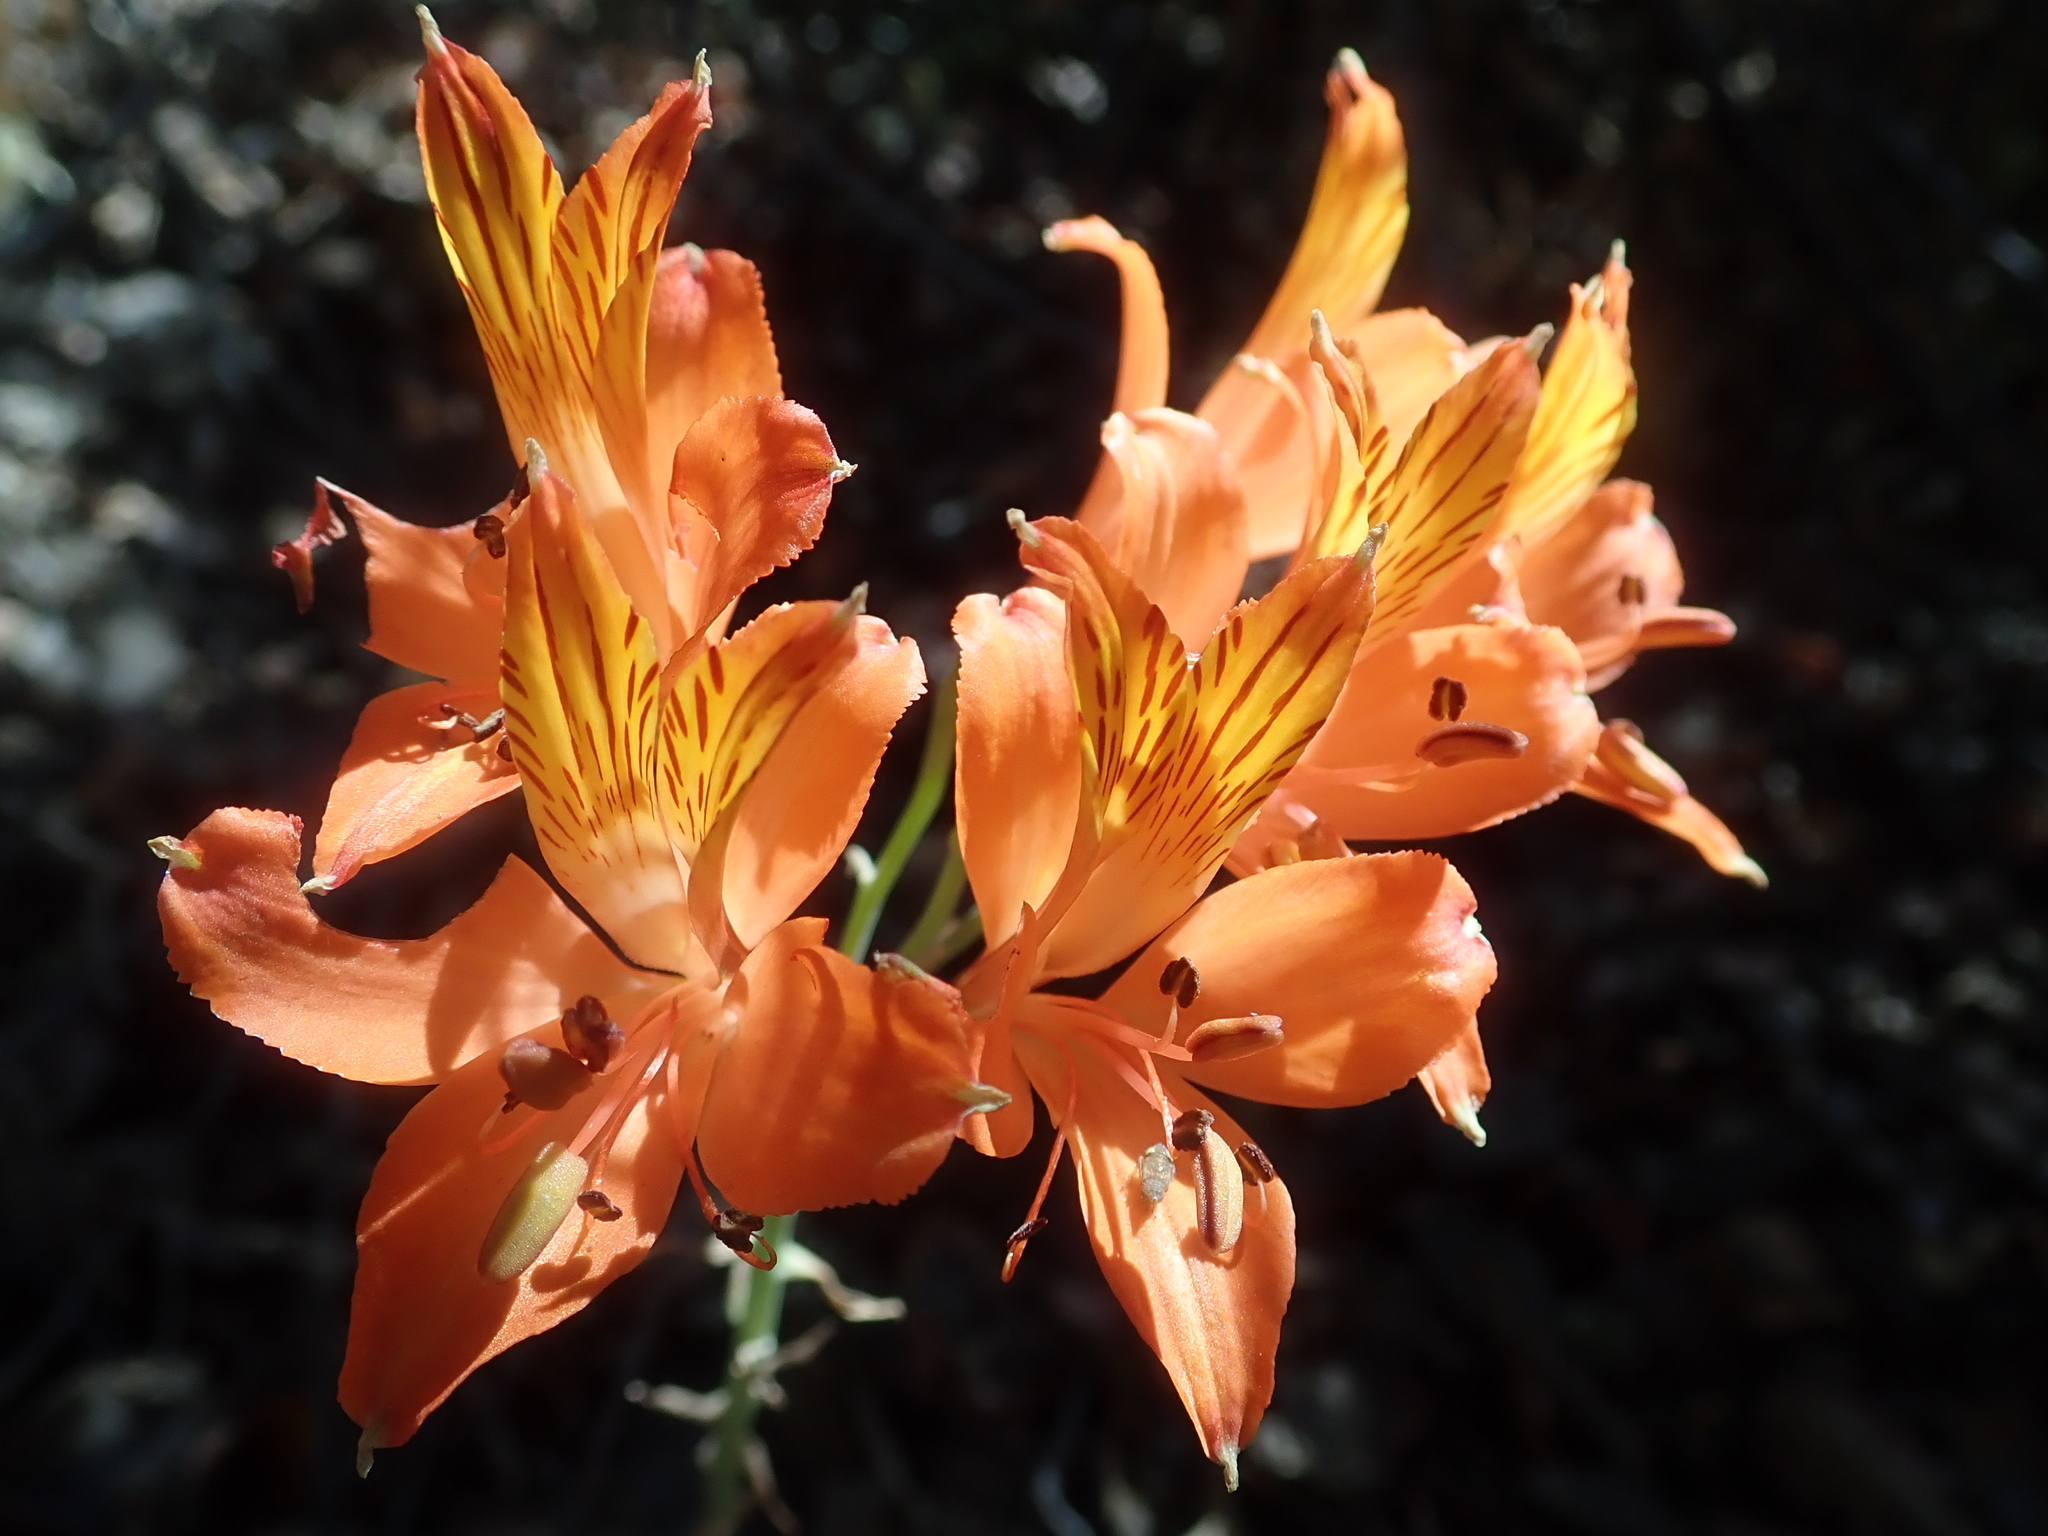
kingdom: Plantae
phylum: Tracheophyta
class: Liliopsida
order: Liliales
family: Alstroemeriaceae
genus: Alstroemeria
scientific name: Alstroemeria ligtu
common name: St. martin's-flower
